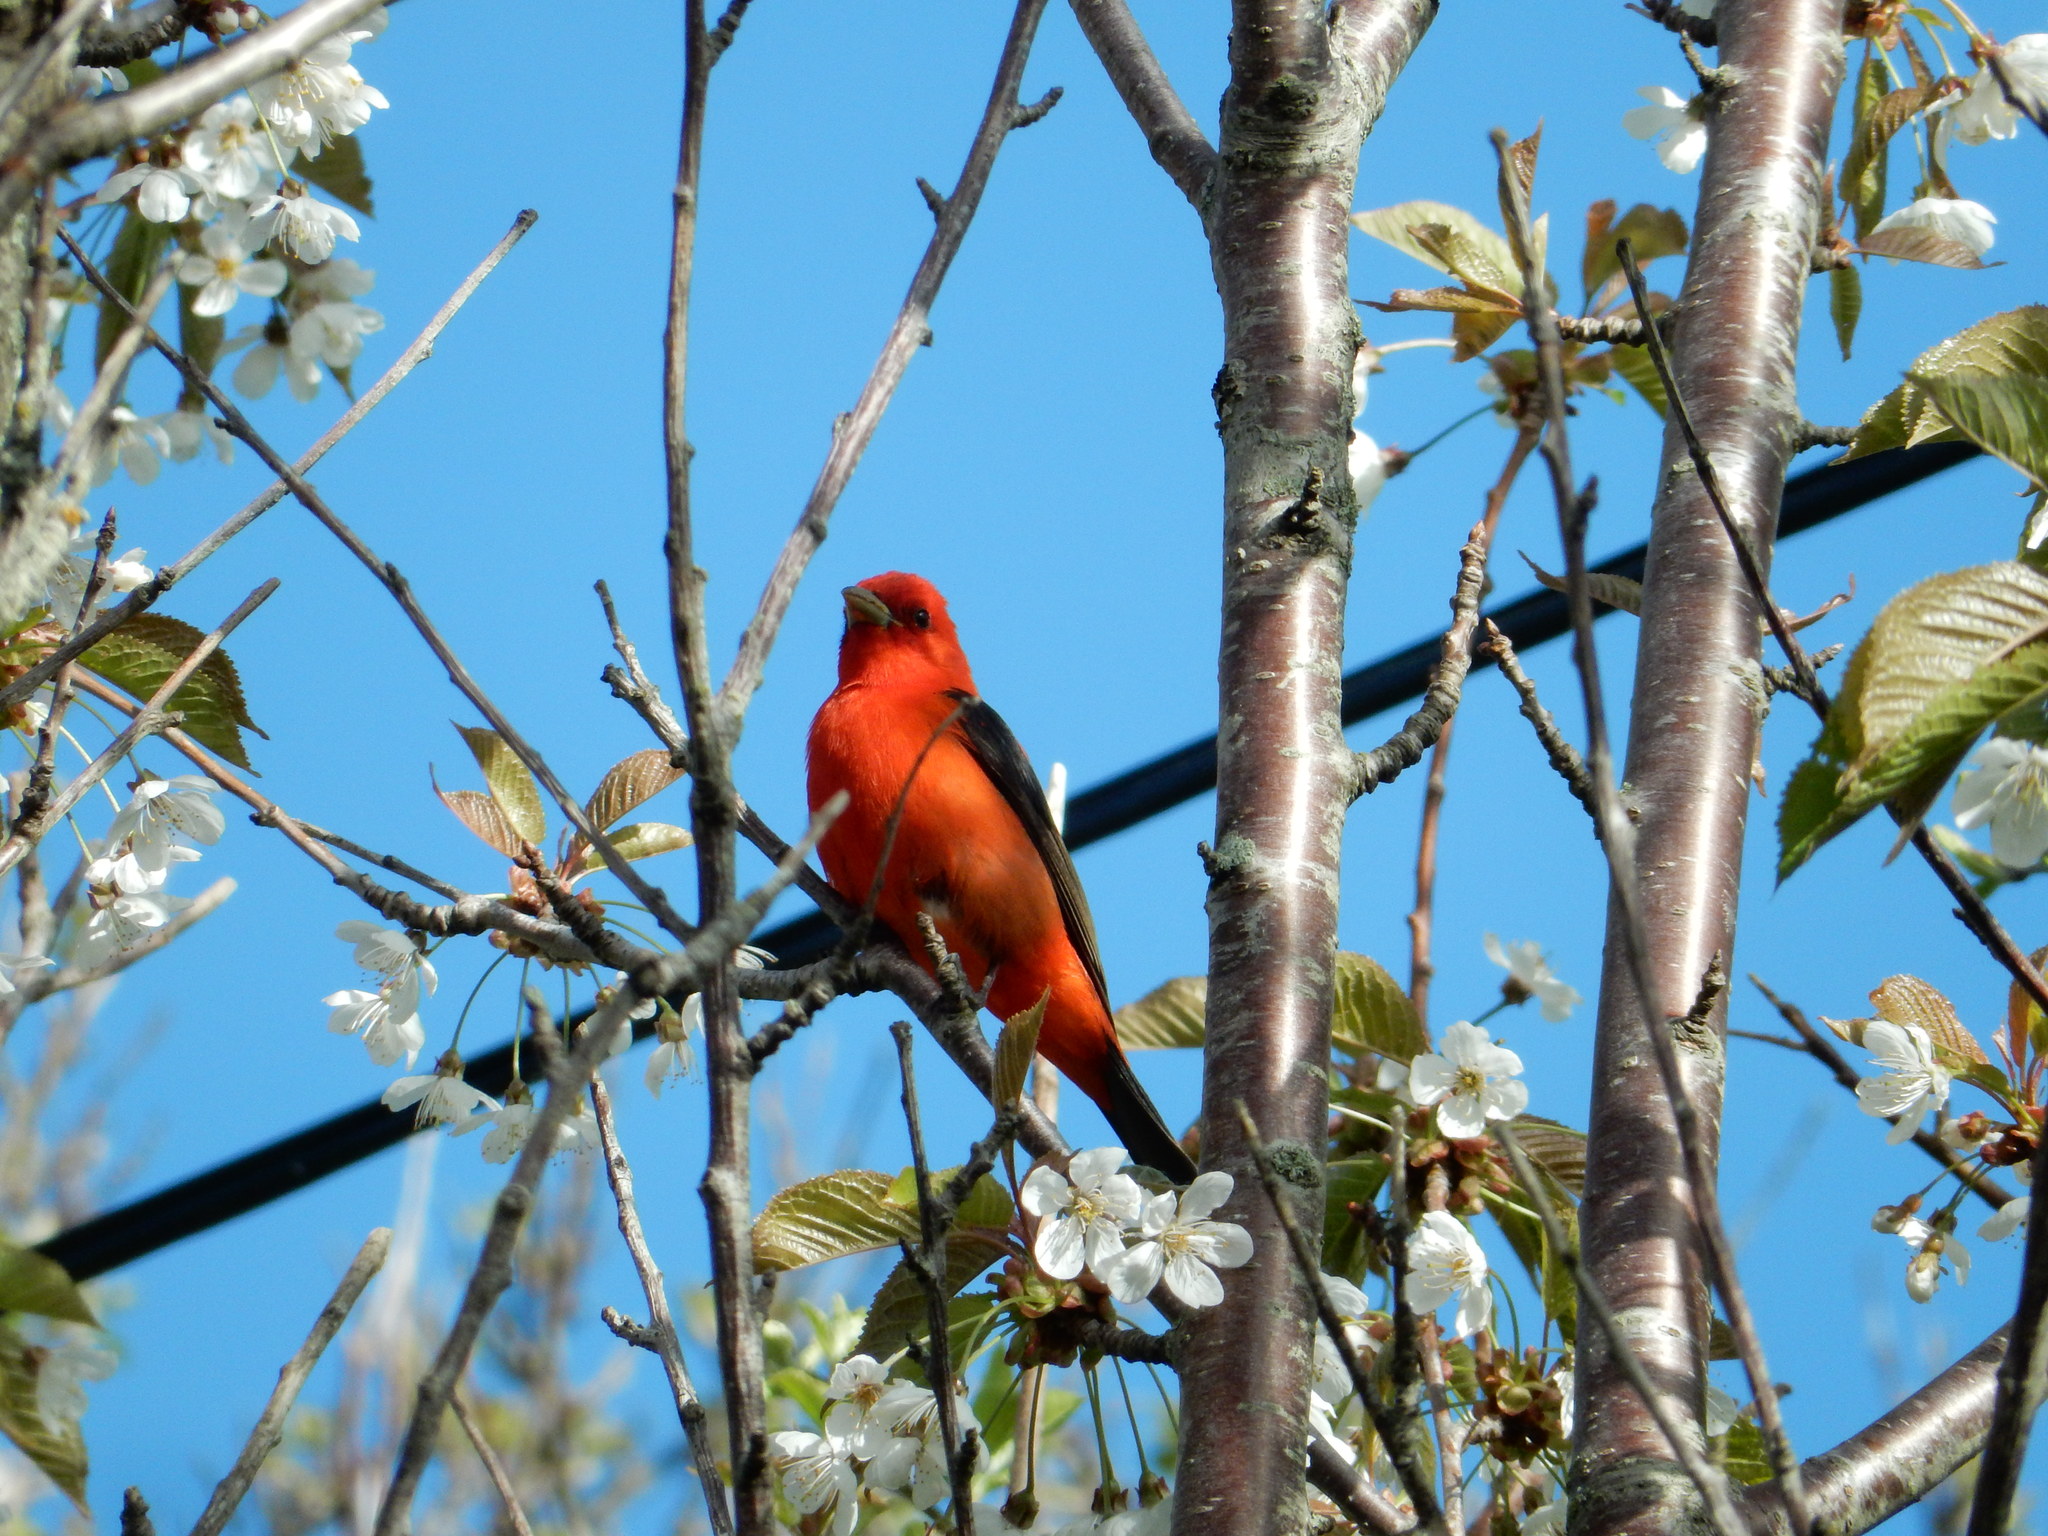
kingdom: Animalia
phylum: Chordata
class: Aves
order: Passeriformes
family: Cardinalidae
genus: Piranga
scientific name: Piranga olivacea
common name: Scarlet tanager
